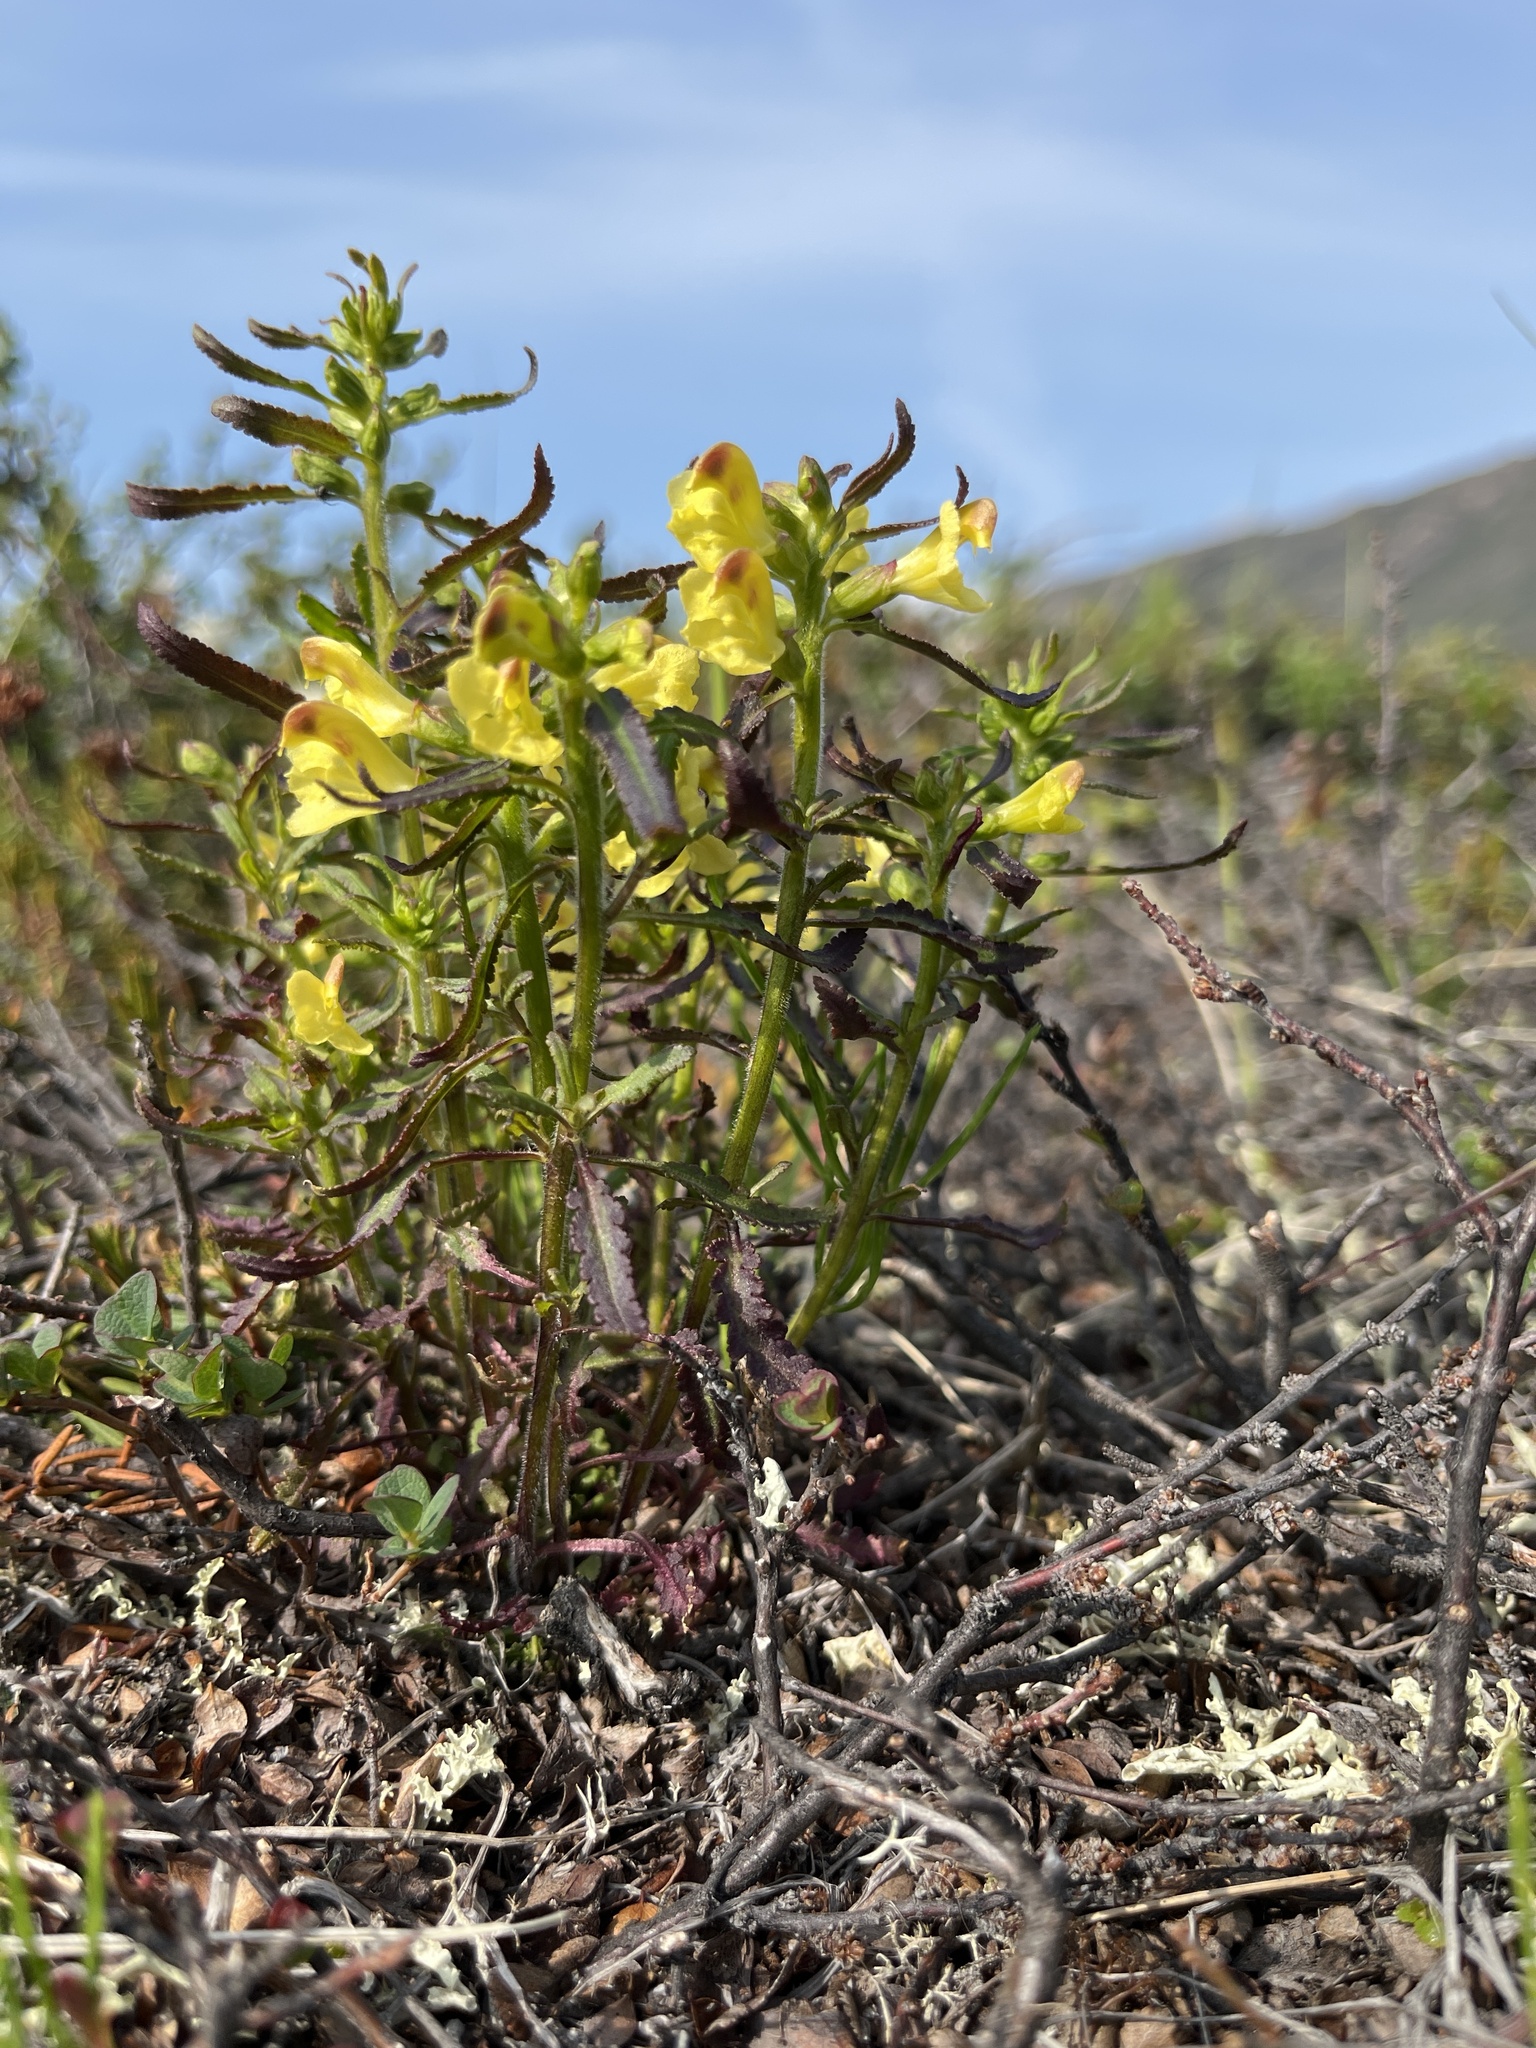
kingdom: Plantae
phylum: Tracheophyta
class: Magnoliopsida
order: Lamiales
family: Orobanchaceae
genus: Pedicularis
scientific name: Pedicularis labradorica
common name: Labrador lousewort
